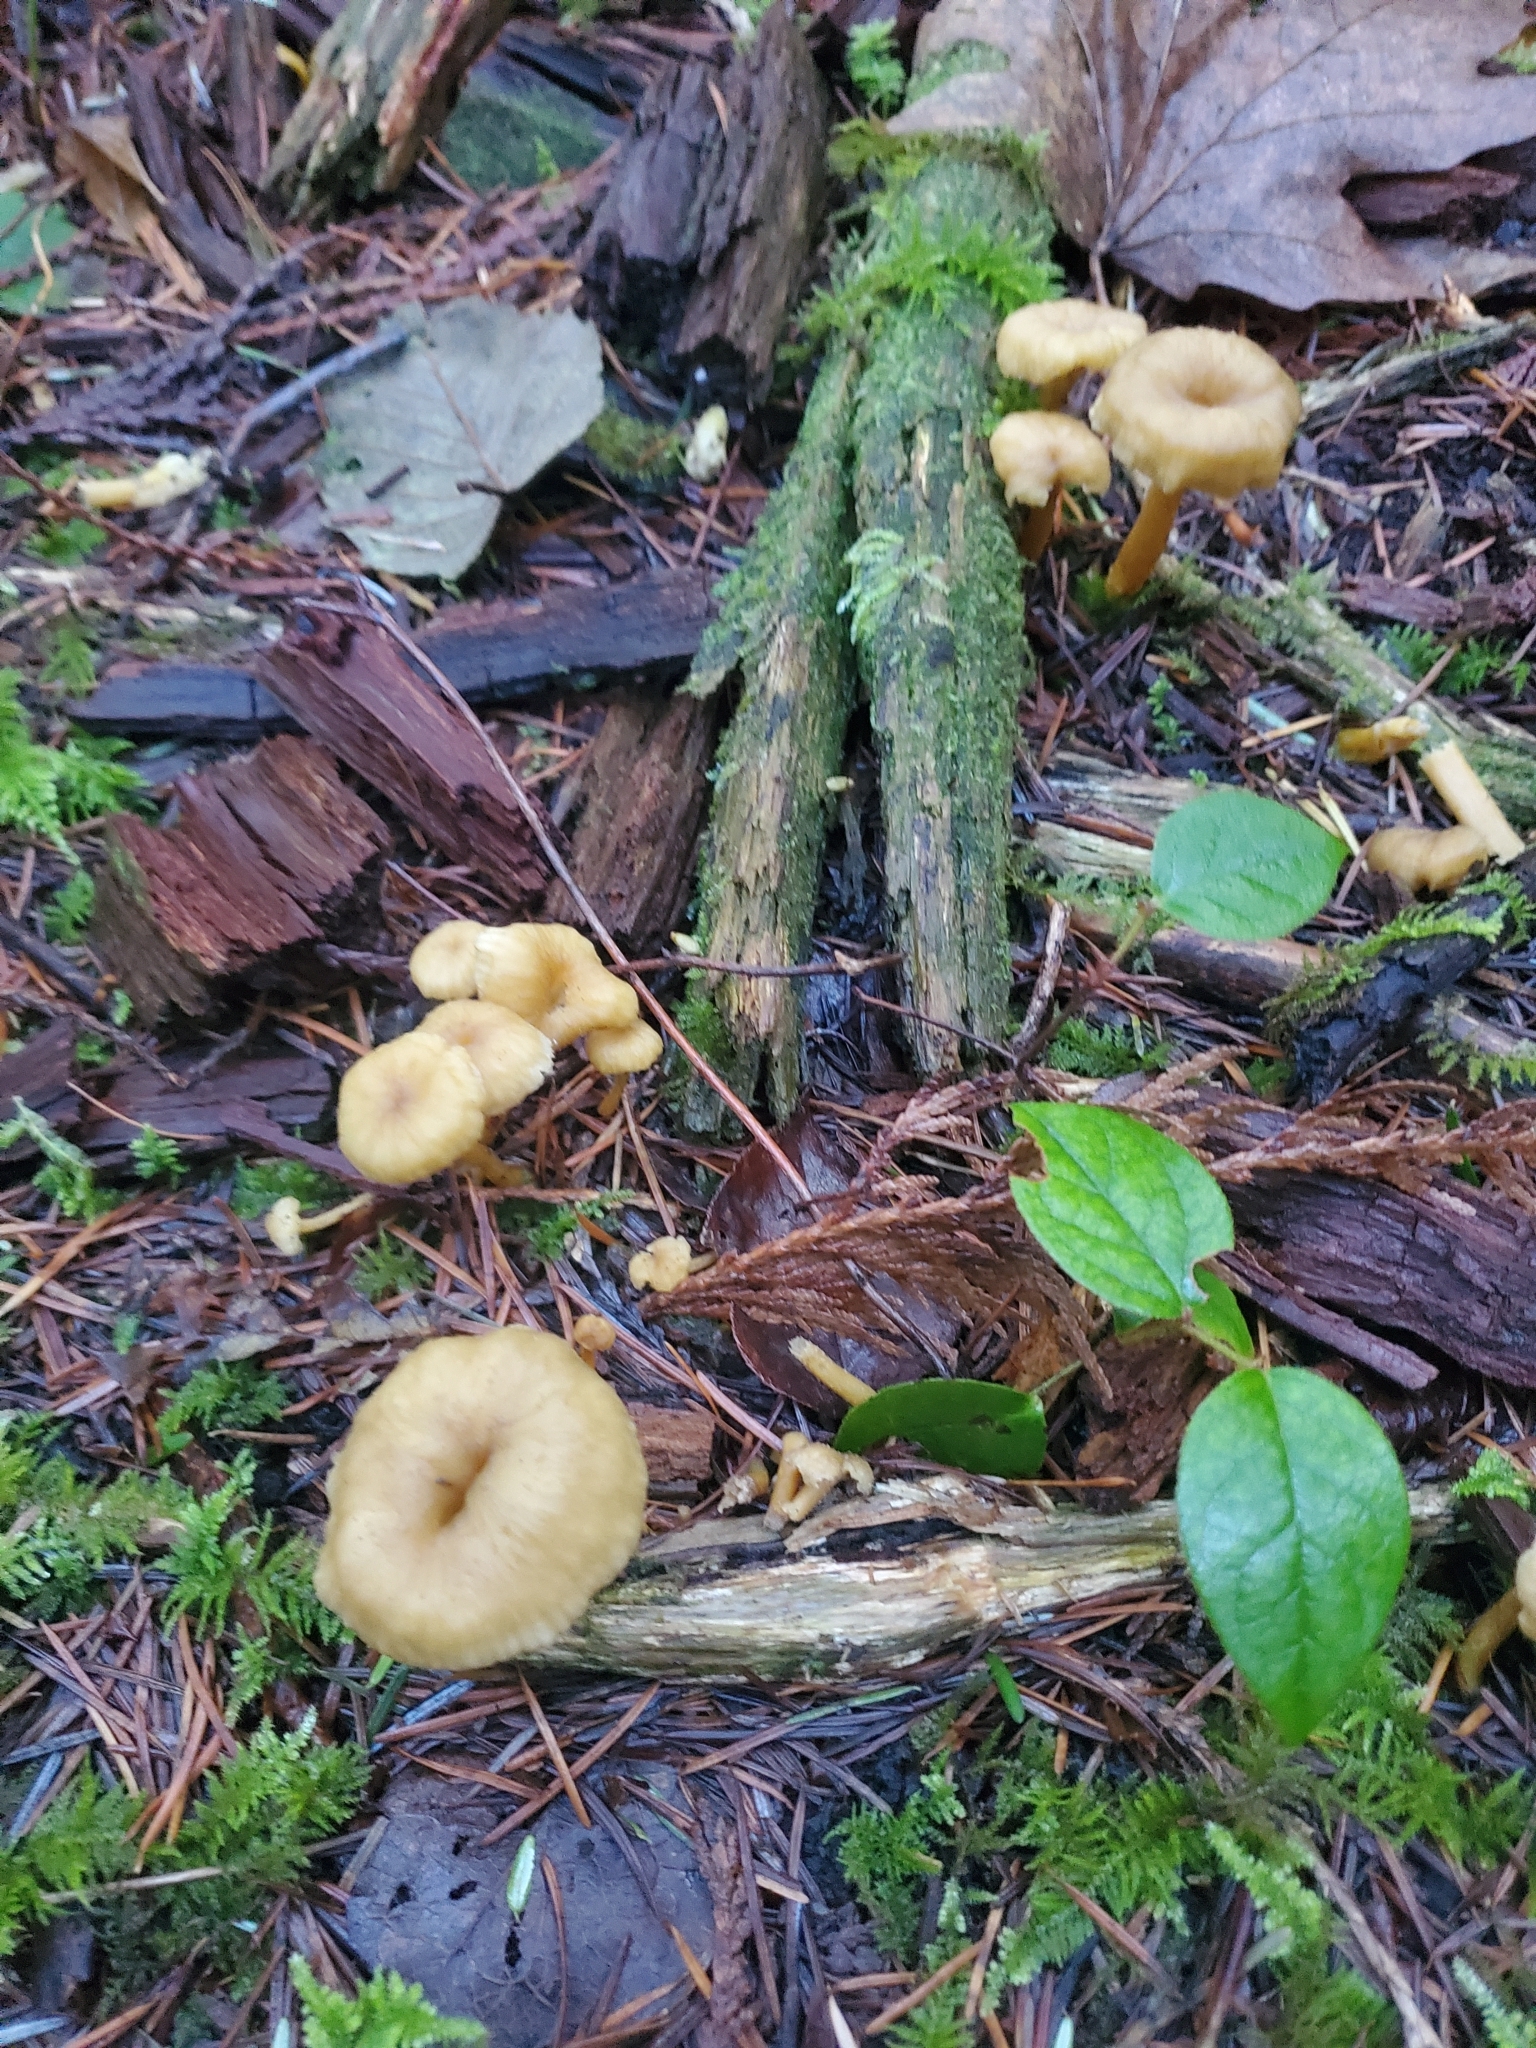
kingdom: Fungi
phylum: Basidiomycota
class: Agaricomycetes
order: Cantharellales
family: Hydnaceae
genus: Craterellus
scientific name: Craterellus tubaeformis
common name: Yellowfoot
